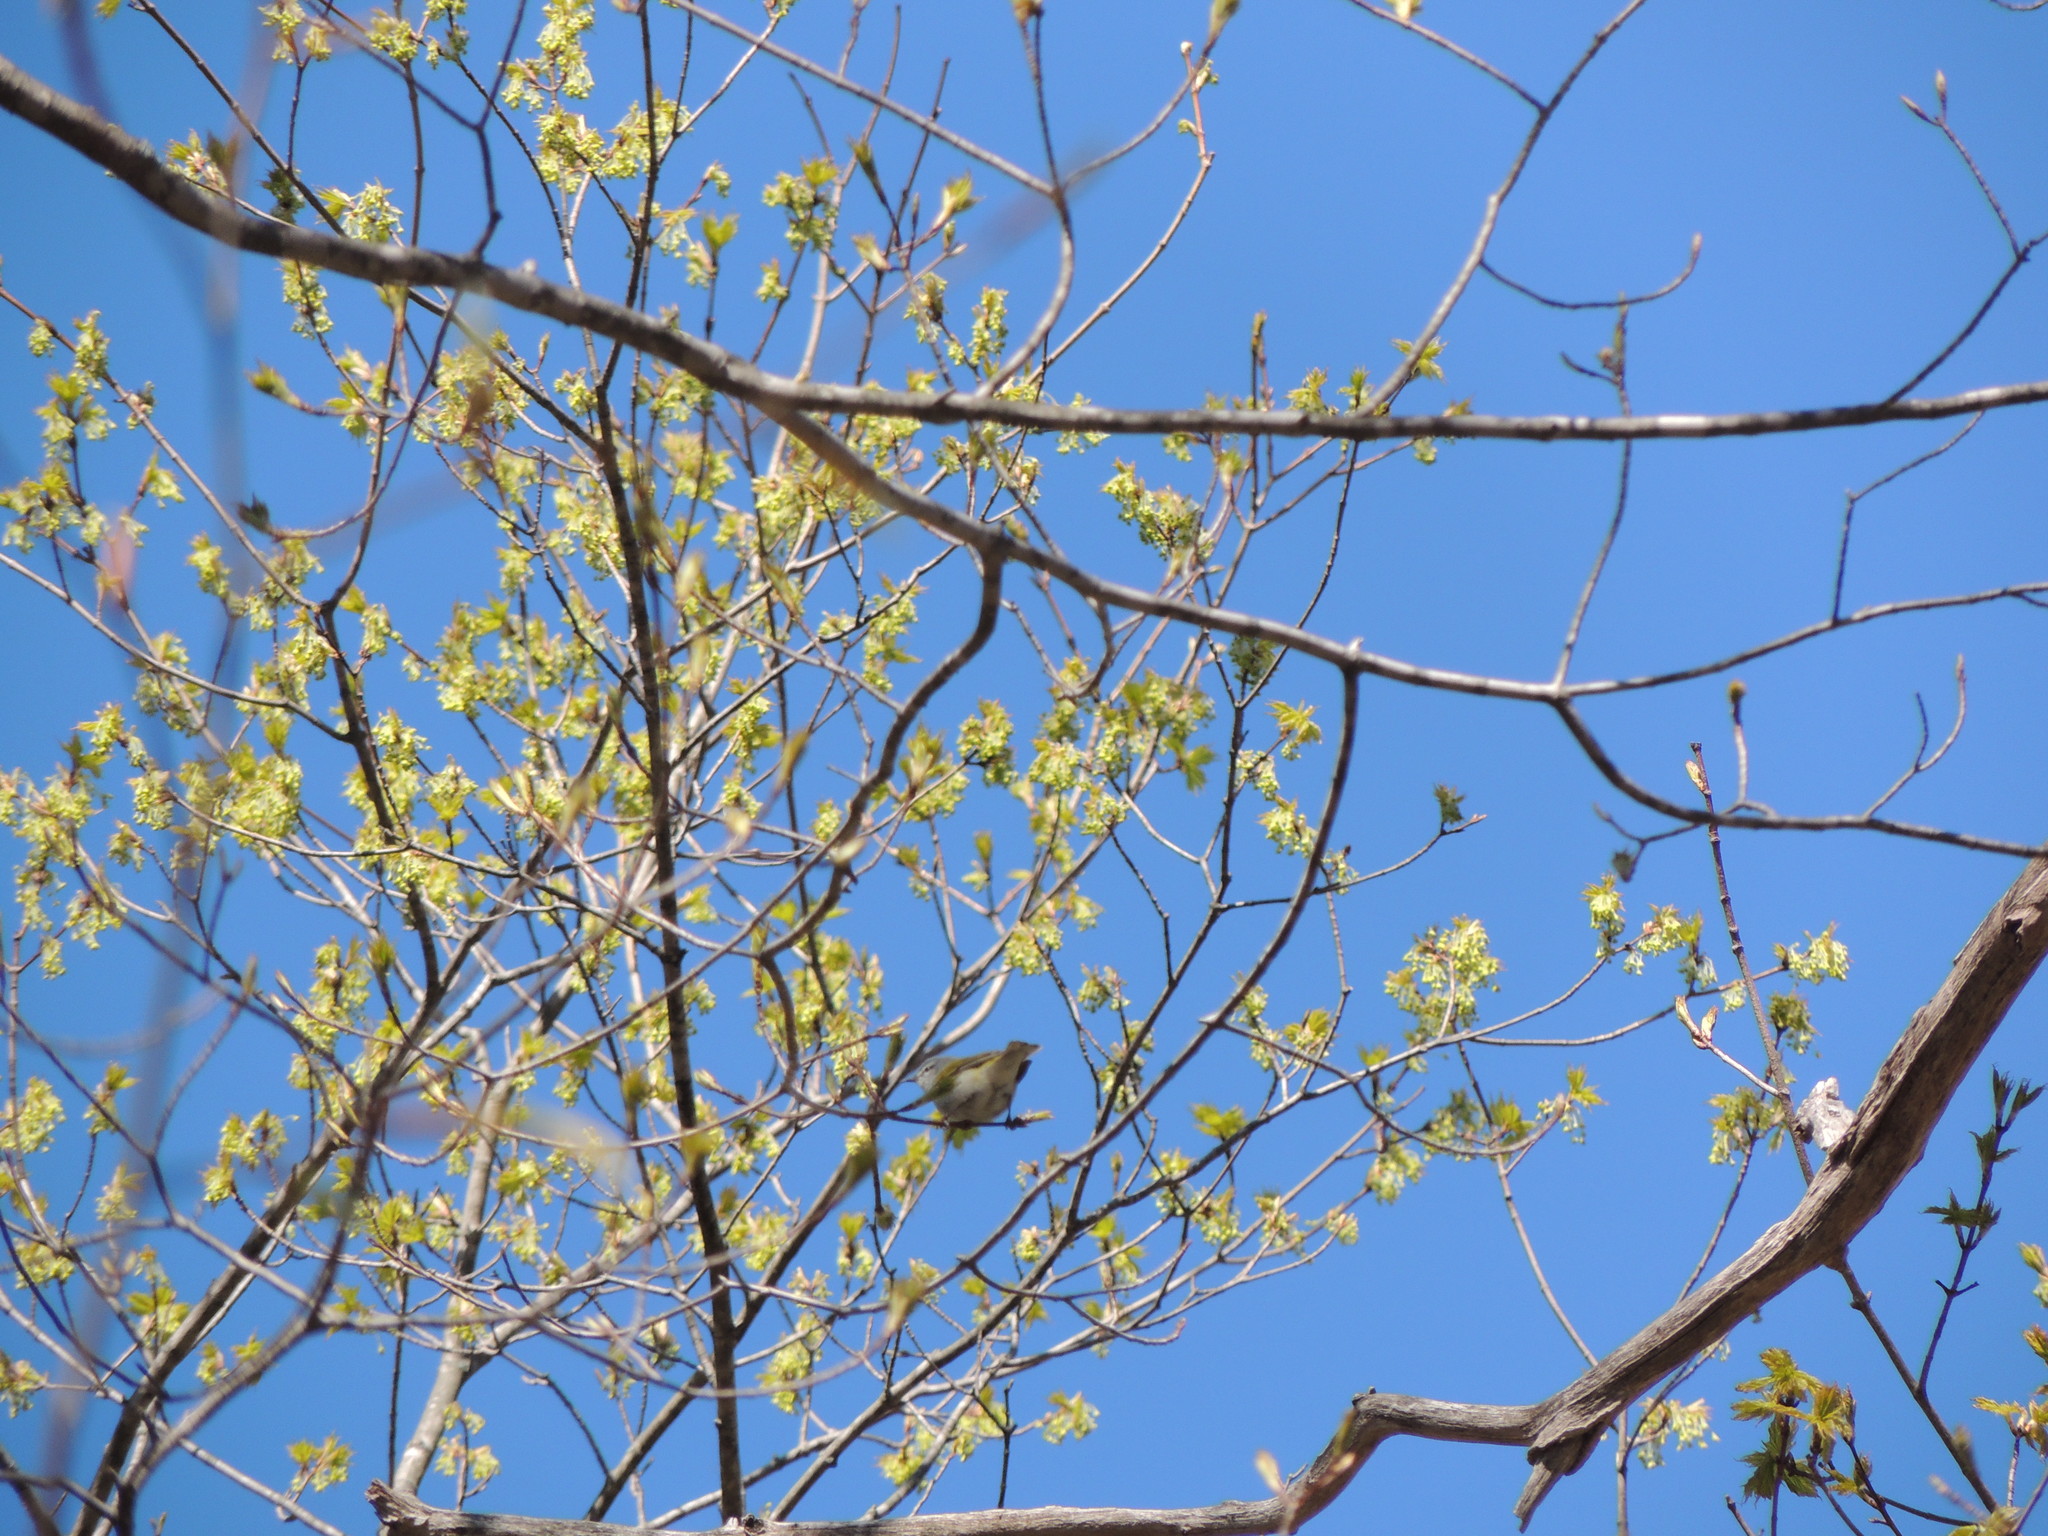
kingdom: Animalia
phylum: Chordata
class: Aves
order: Passeriformes
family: Parulidae
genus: Leiothlypis
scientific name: Leiothlypis peregrina
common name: Tennessee warbler
